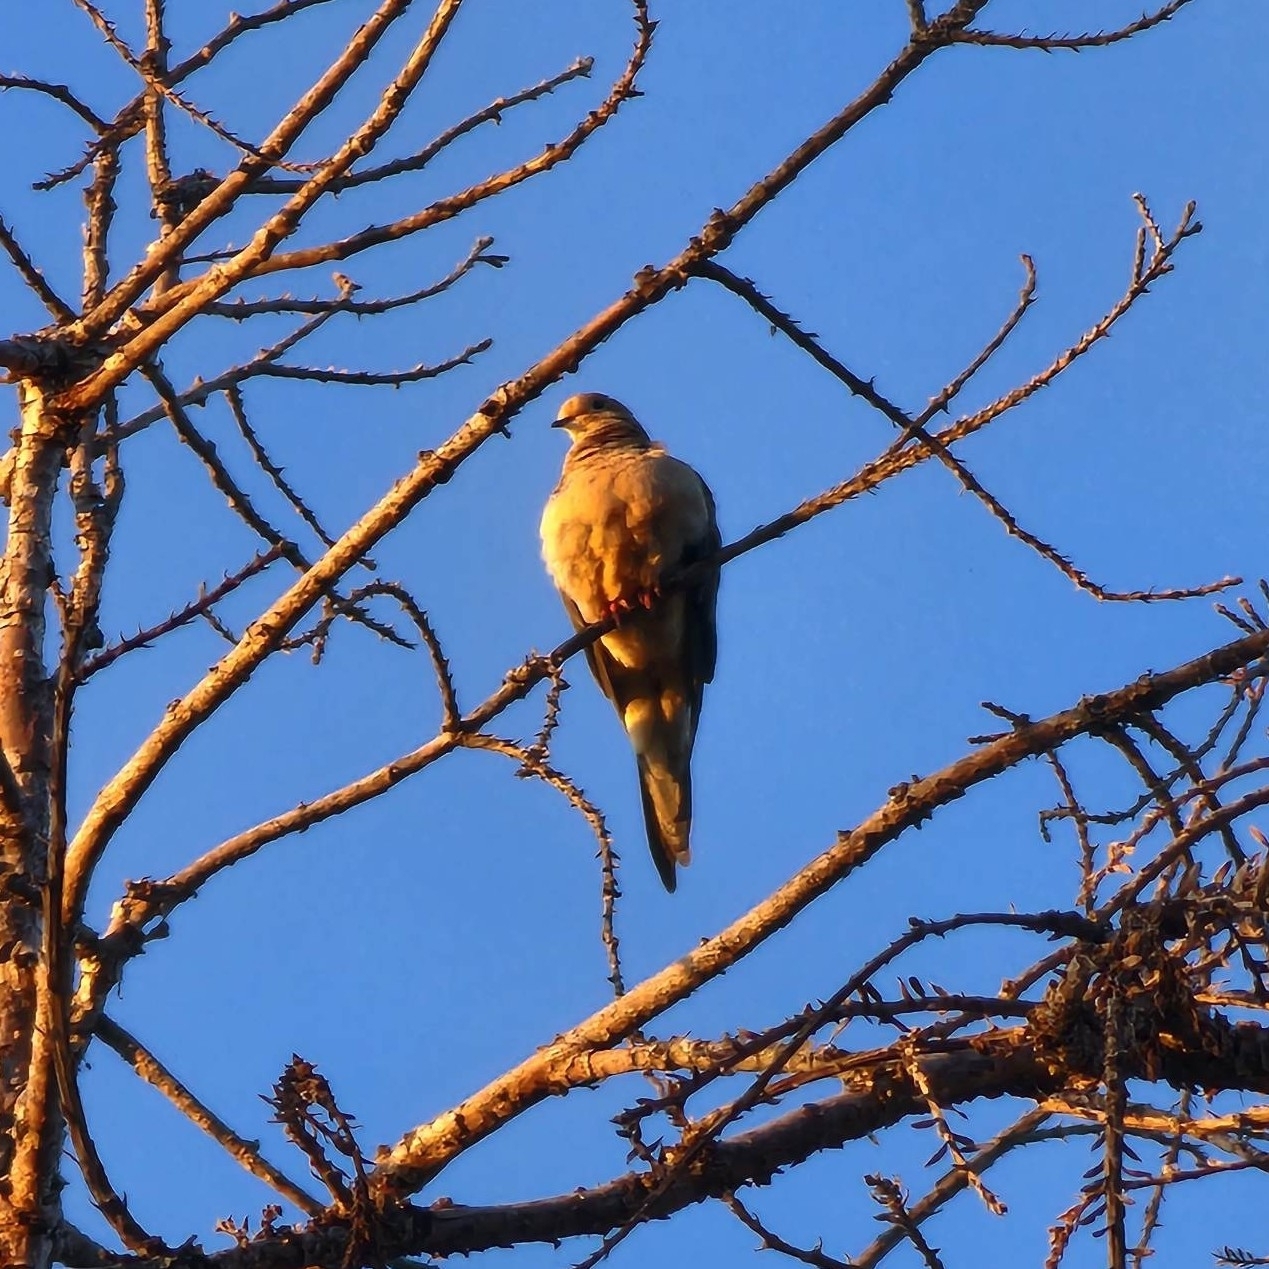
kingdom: Animalia
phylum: Chordata
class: Aves
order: Columbiformes
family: Columbidae
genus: Zenaida
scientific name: Zenaida macroura
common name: Mourning dove
